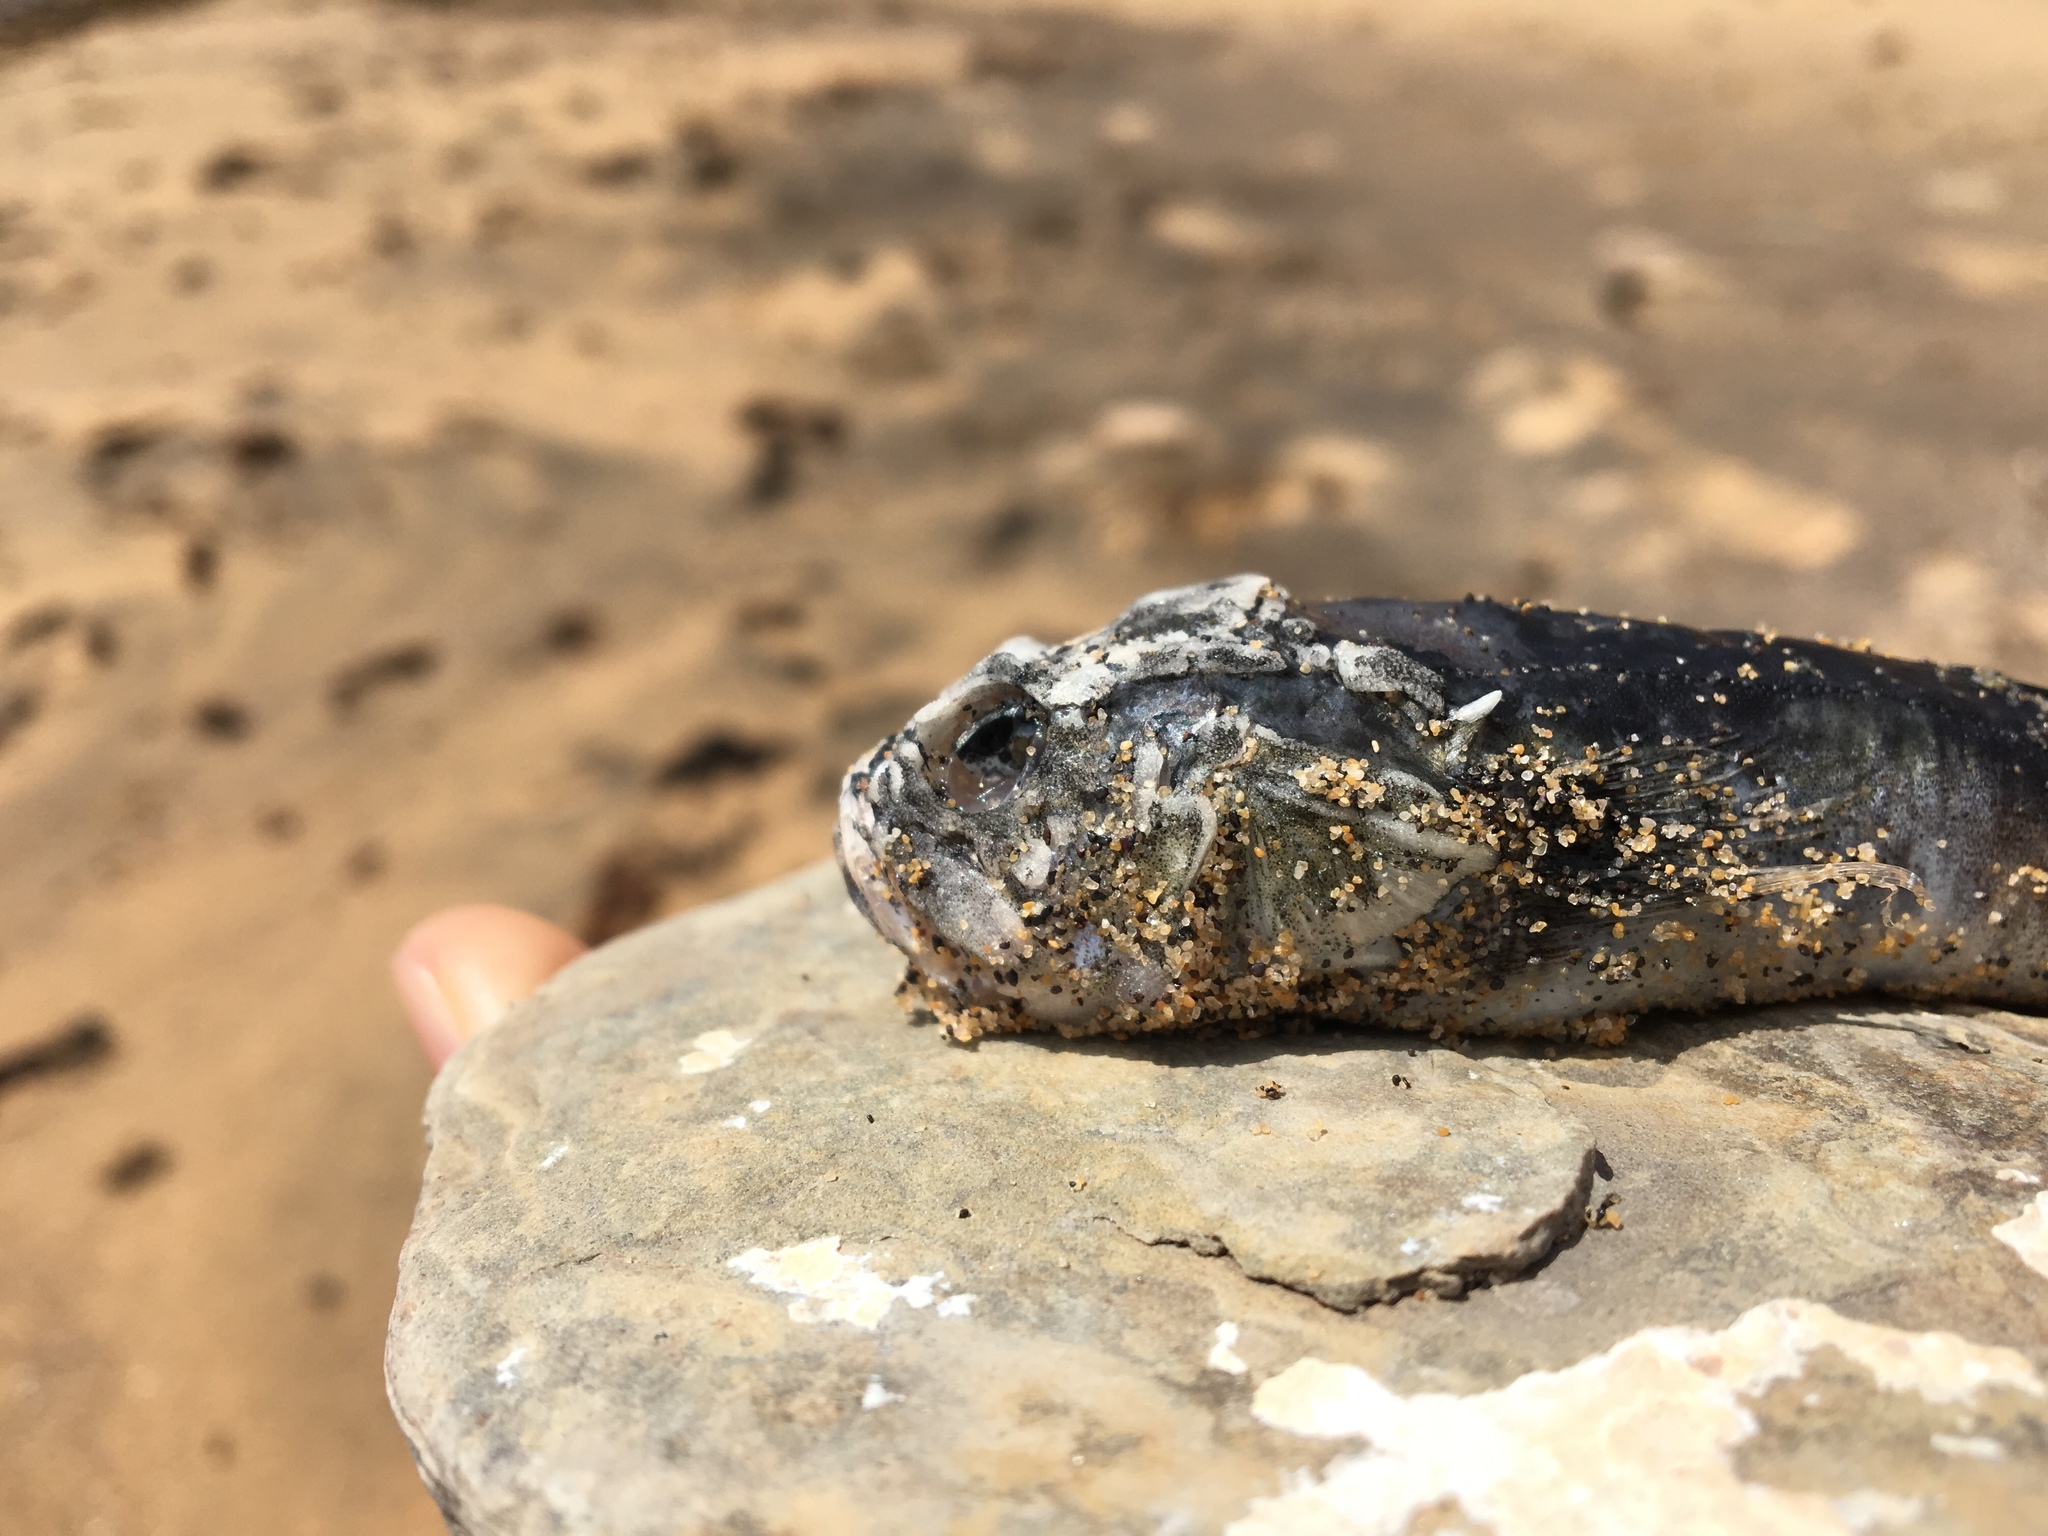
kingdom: Animalia
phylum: Chordata
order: Perciformes
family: Uranoscopidae
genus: Xenocephalus
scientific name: Xenocephalus armatus
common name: Armoured blenny
